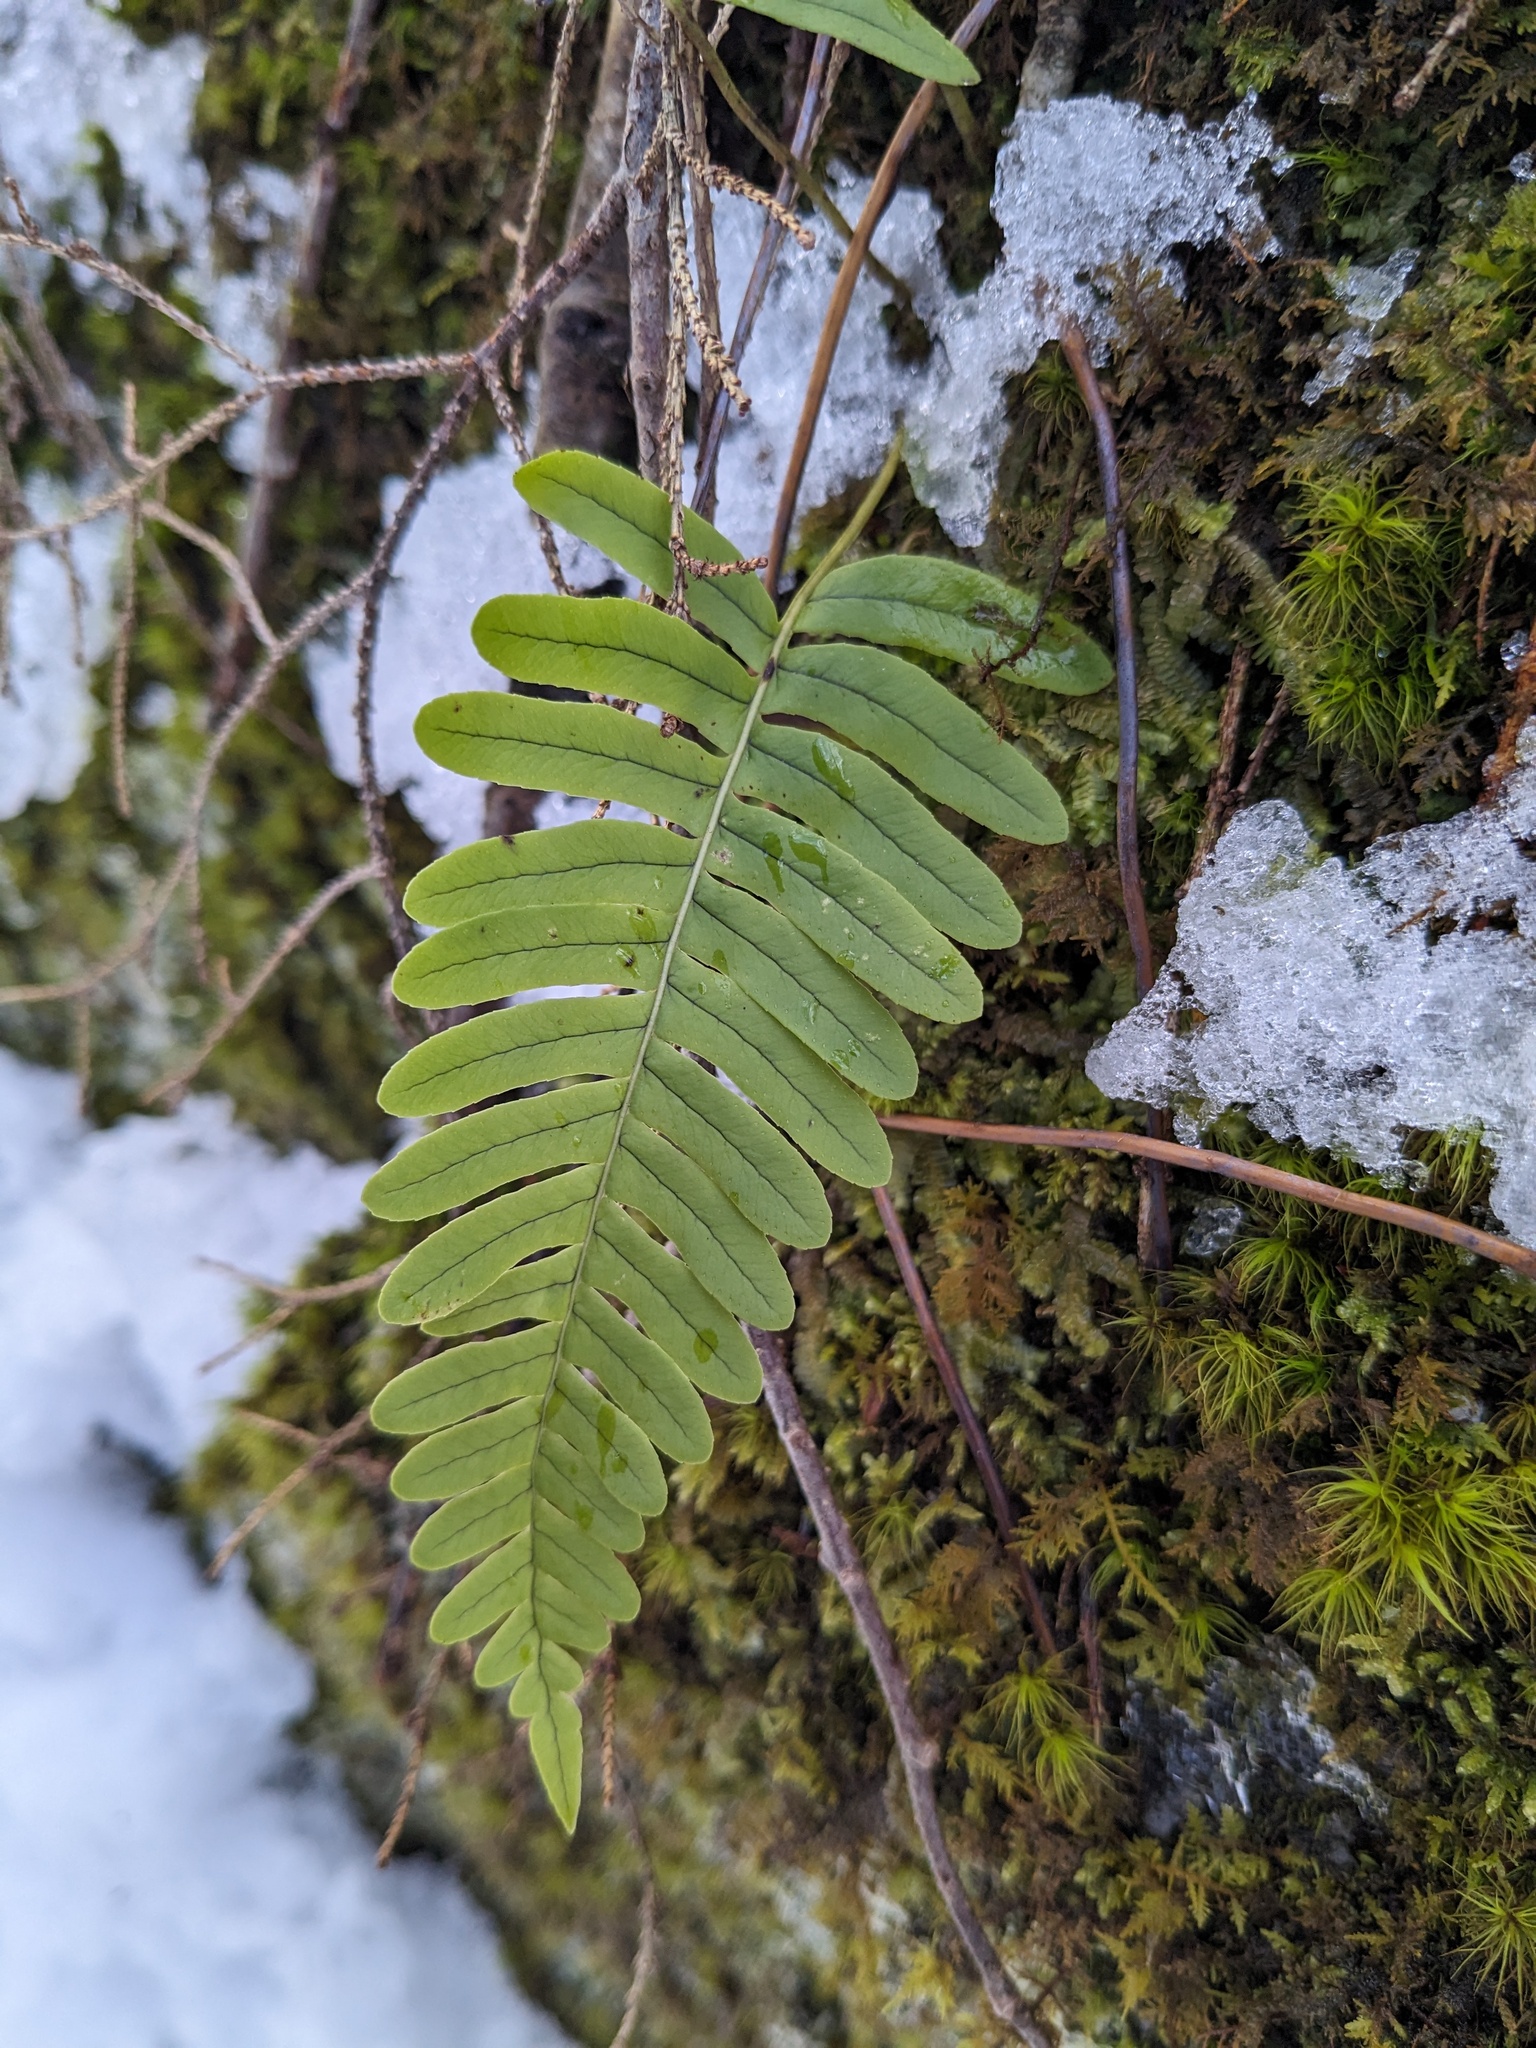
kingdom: Plantae
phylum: Tracheophyta
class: Polypodiopsida
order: Polypodiales
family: Polypodiaceae
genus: Polypodium
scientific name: Polypodium virginianum
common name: American wall fern
